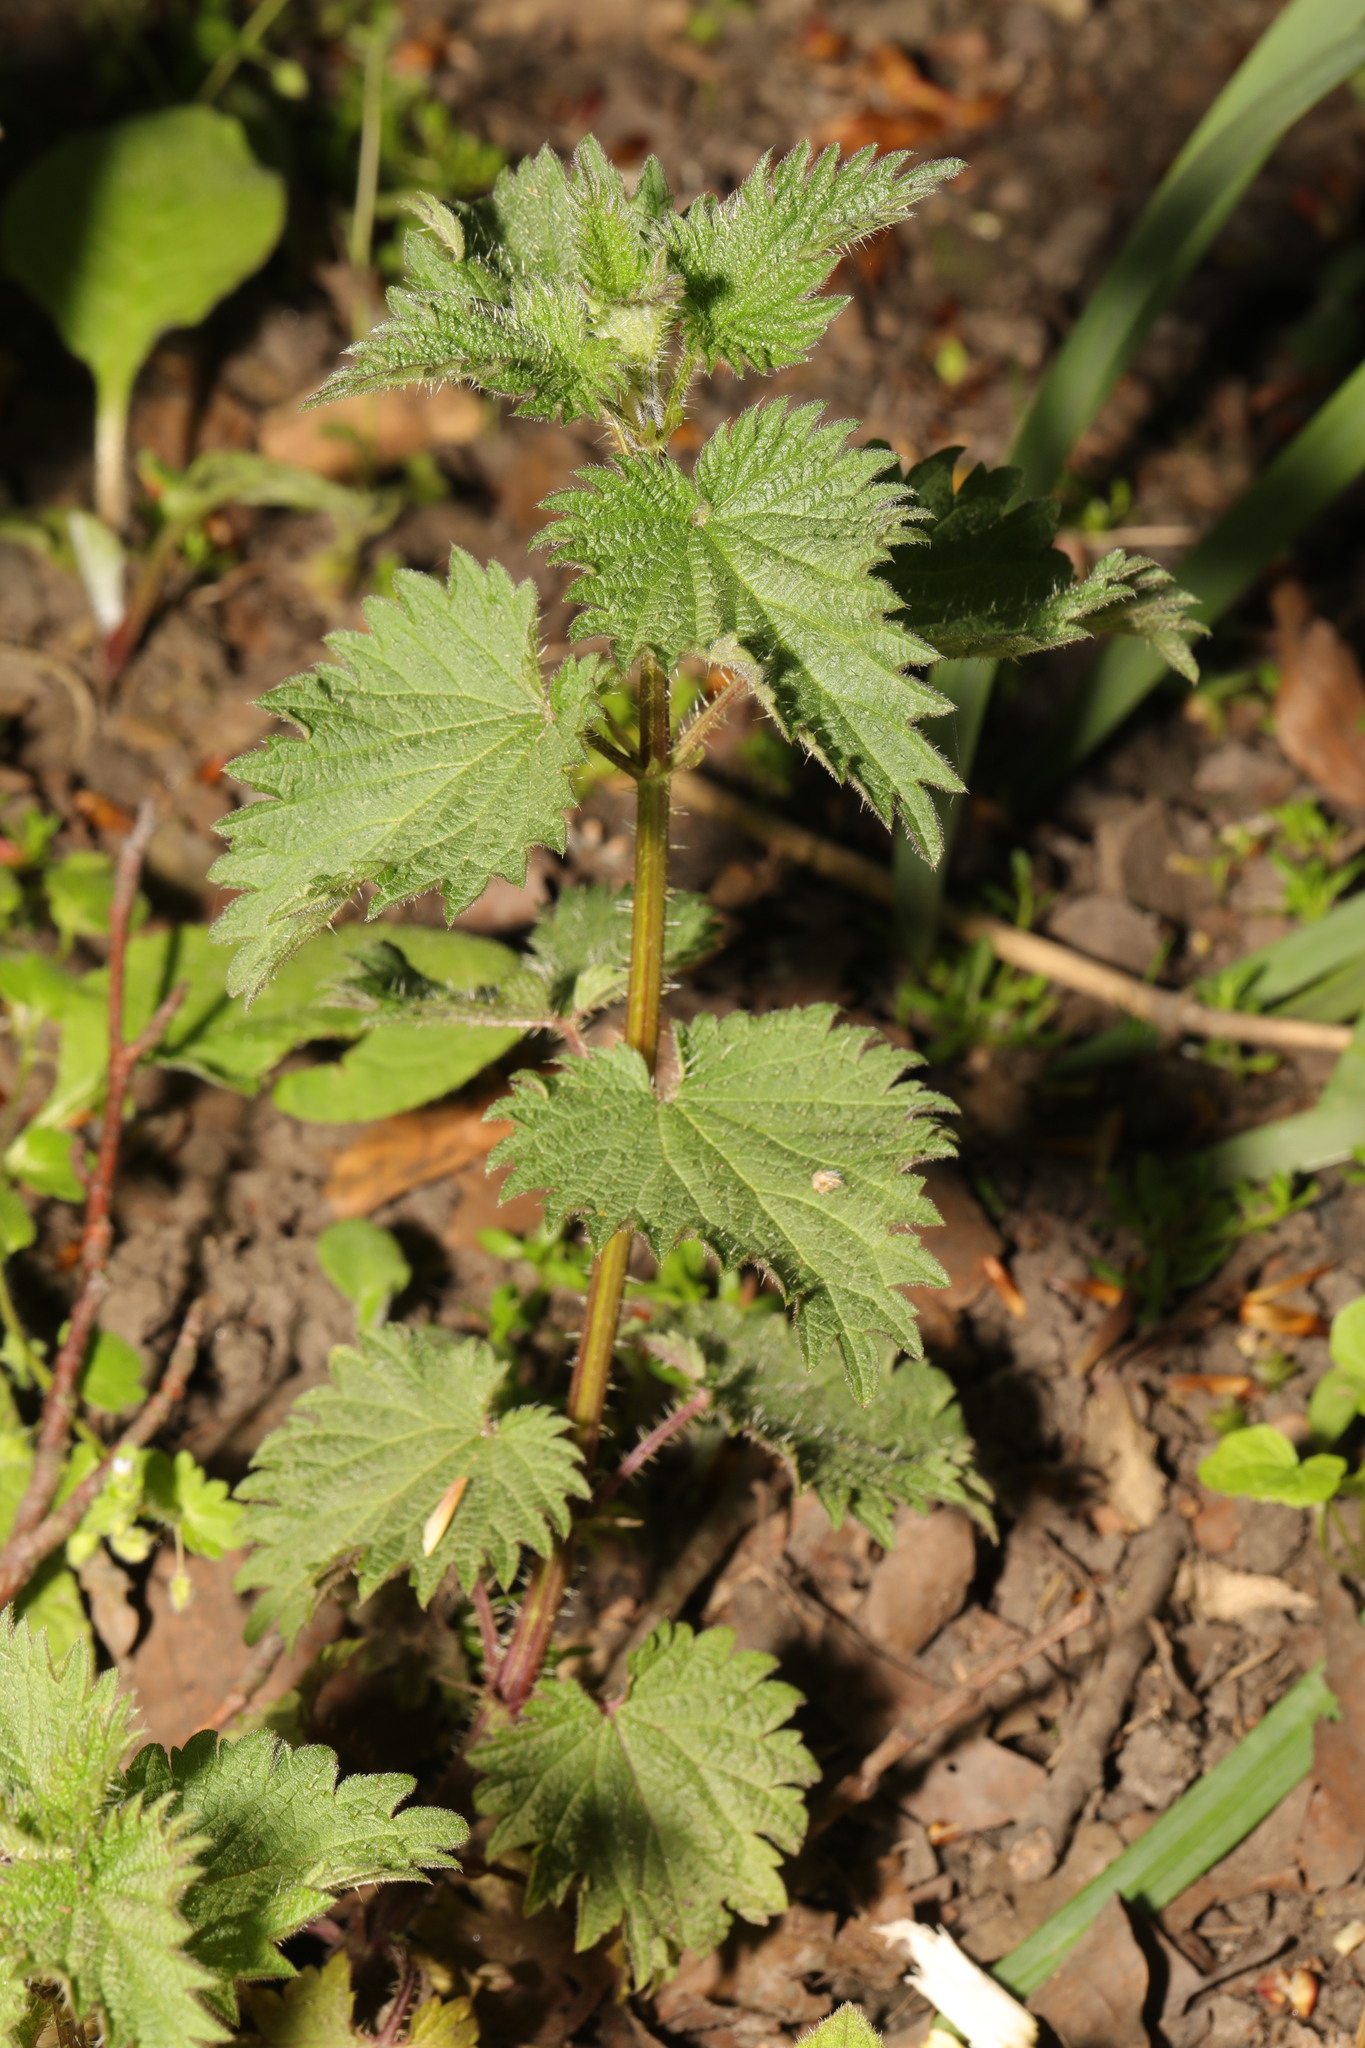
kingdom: Plantae
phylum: Tracheophyta
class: Magnoliopsida
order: Rosales
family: Urticaceae
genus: Urtica
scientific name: Urtica dioica
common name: Common nettle
